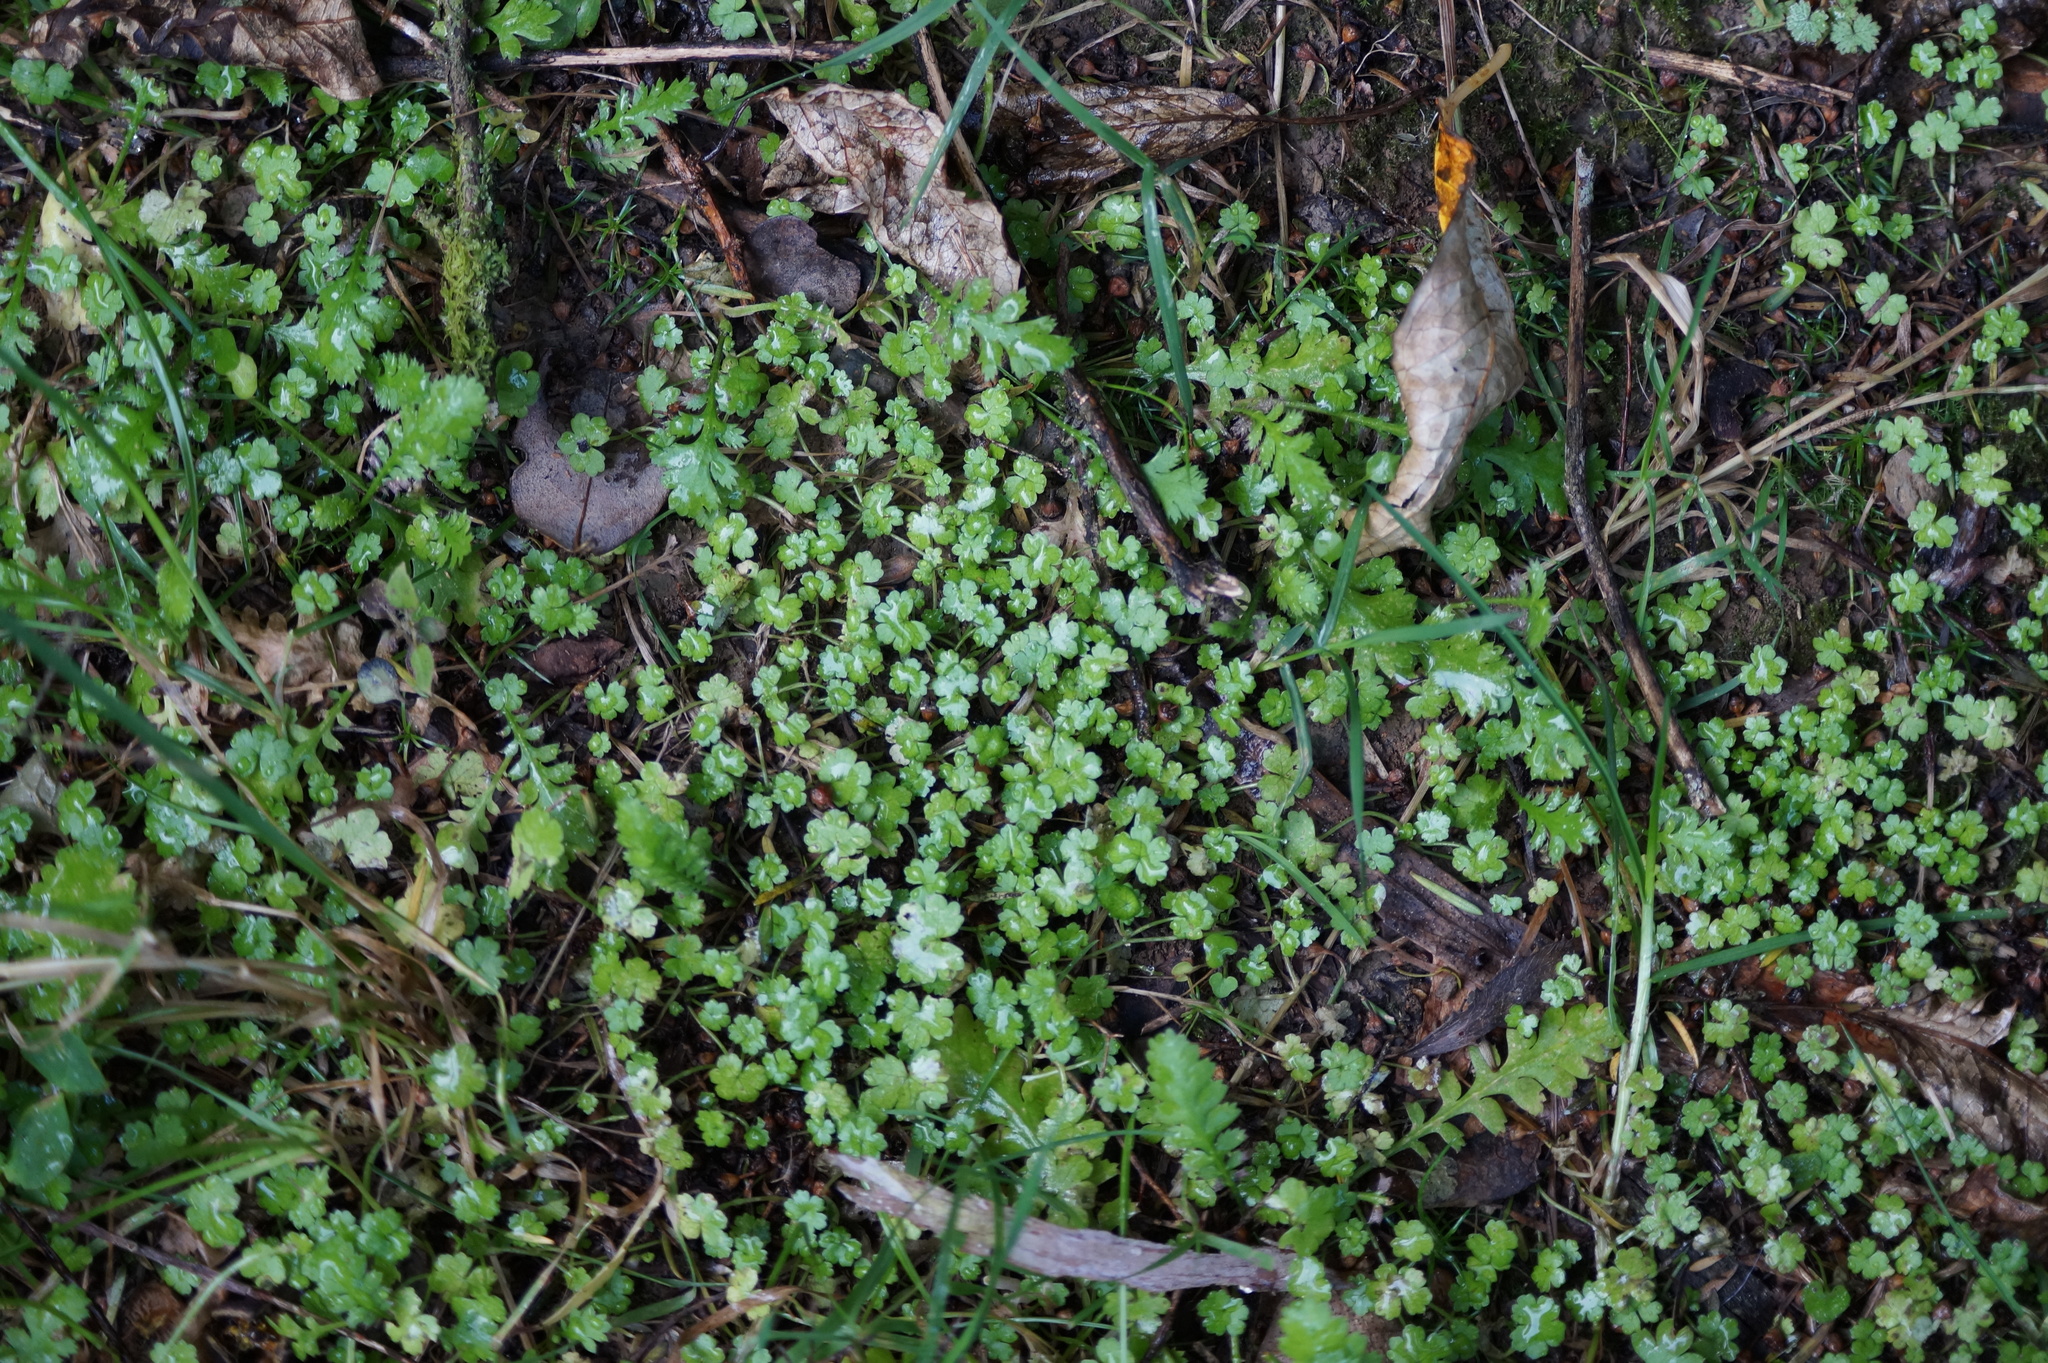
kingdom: Plantae
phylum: Tracheophyta
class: Magnoliopsida
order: Apiales
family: Araliaceae
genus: Hydrocotyle
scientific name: Hydrocotyle heteromeria
